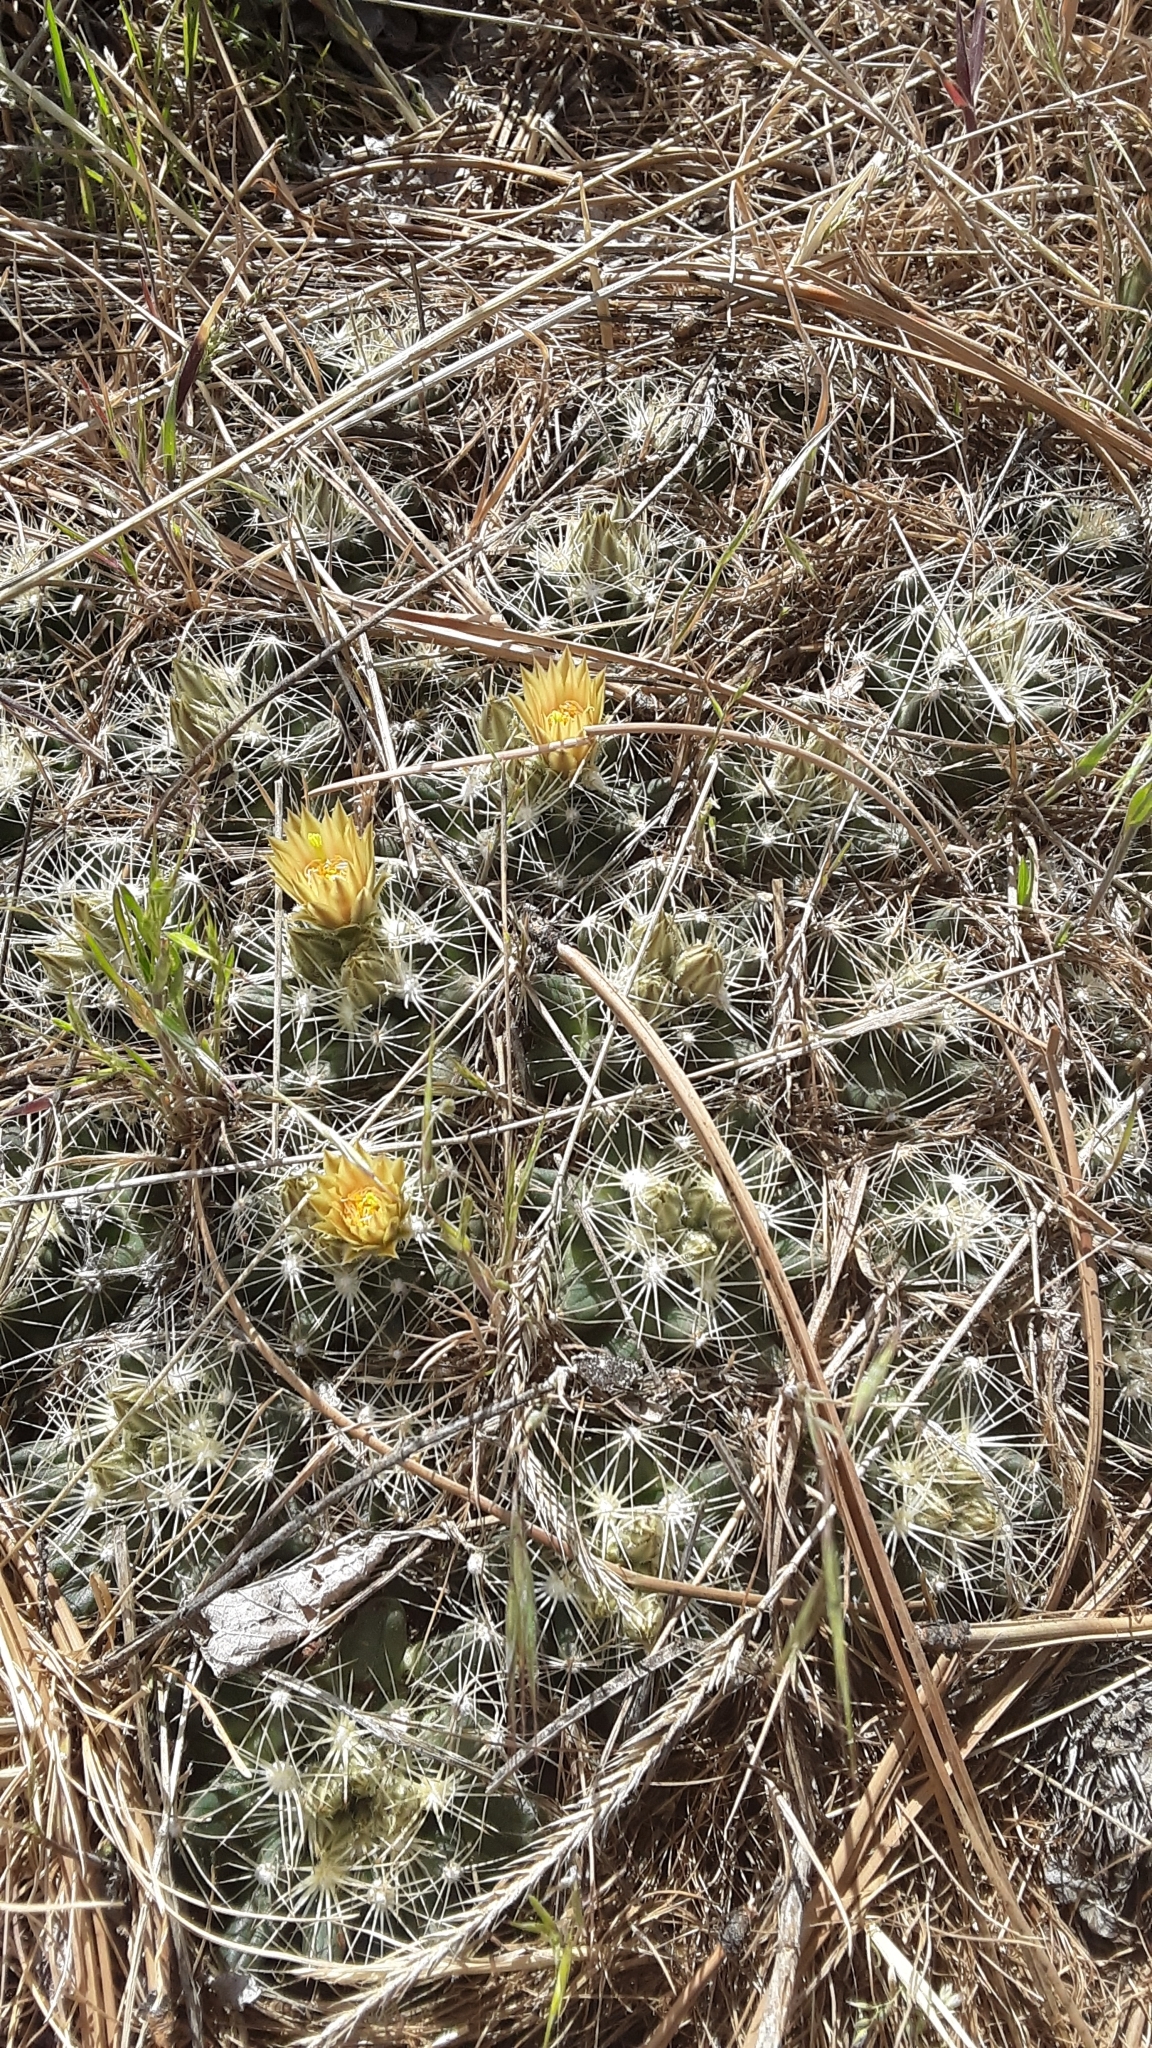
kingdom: Plantae
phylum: Tracheophyta
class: Magnoliopsida
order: Caryophyllales
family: Cactaceae
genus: Pelecyphora
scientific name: Pelecyphora missouriensis
